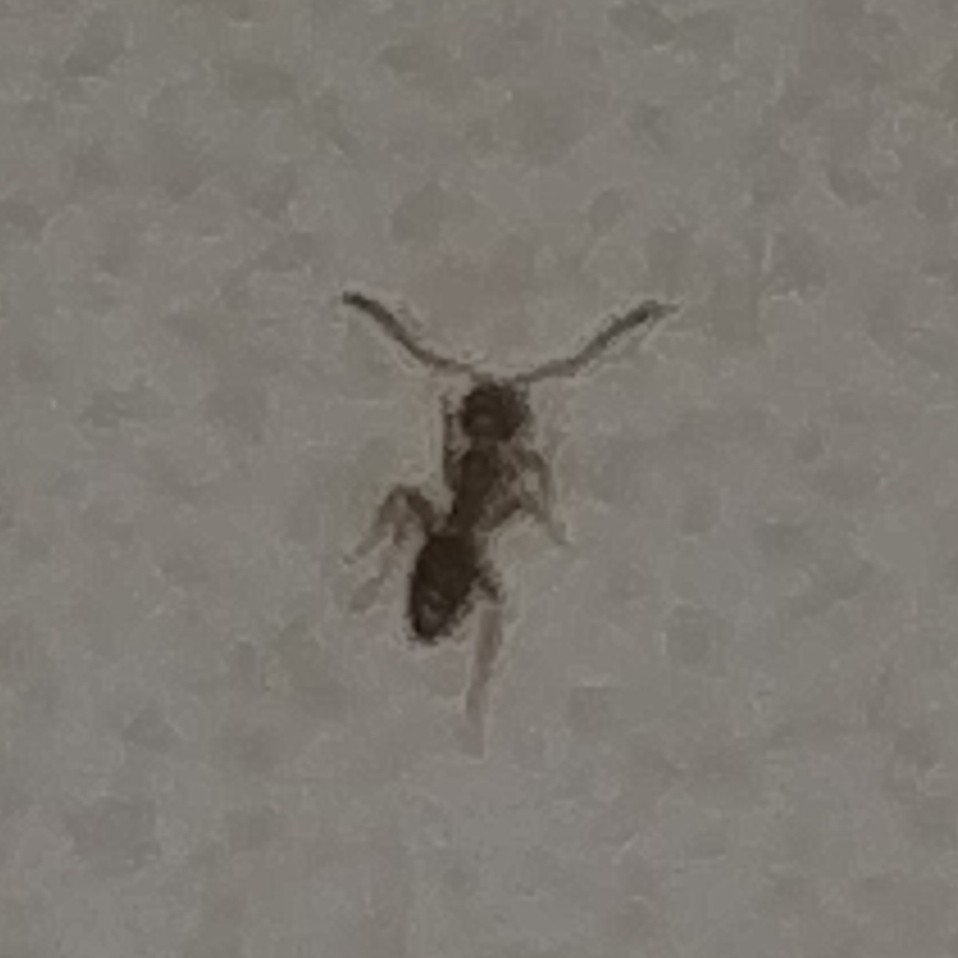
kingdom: Animalia
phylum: Arthropoda
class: Insecta
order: Hymenoptera
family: Formicidae
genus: Tapinoma
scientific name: Tapinoma sessile
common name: Odorous house ant
